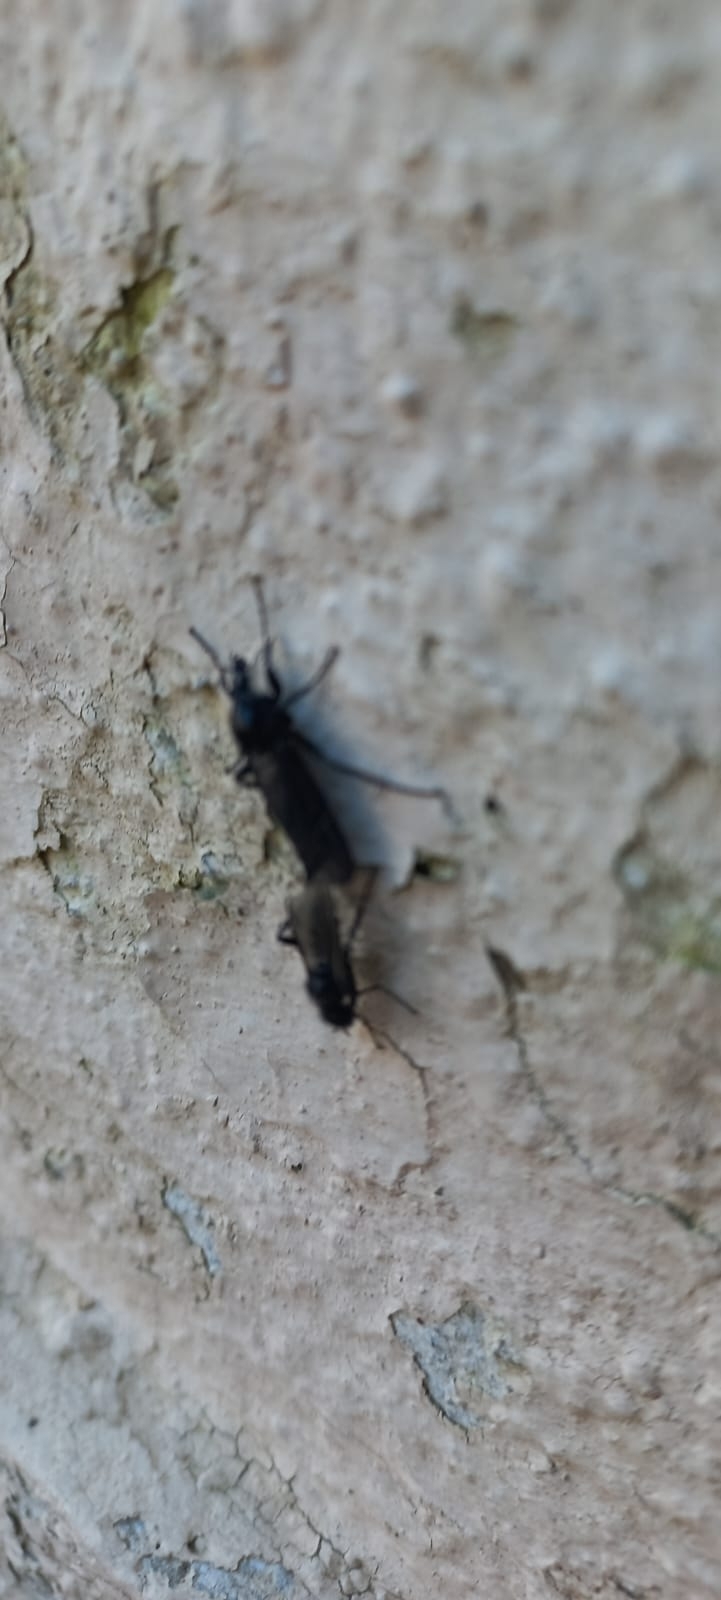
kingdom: Animalia
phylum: Arthropoda
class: Insecta
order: Diptera
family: Bibionidae
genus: Bibio
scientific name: Bibio marci
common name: St marks fly
